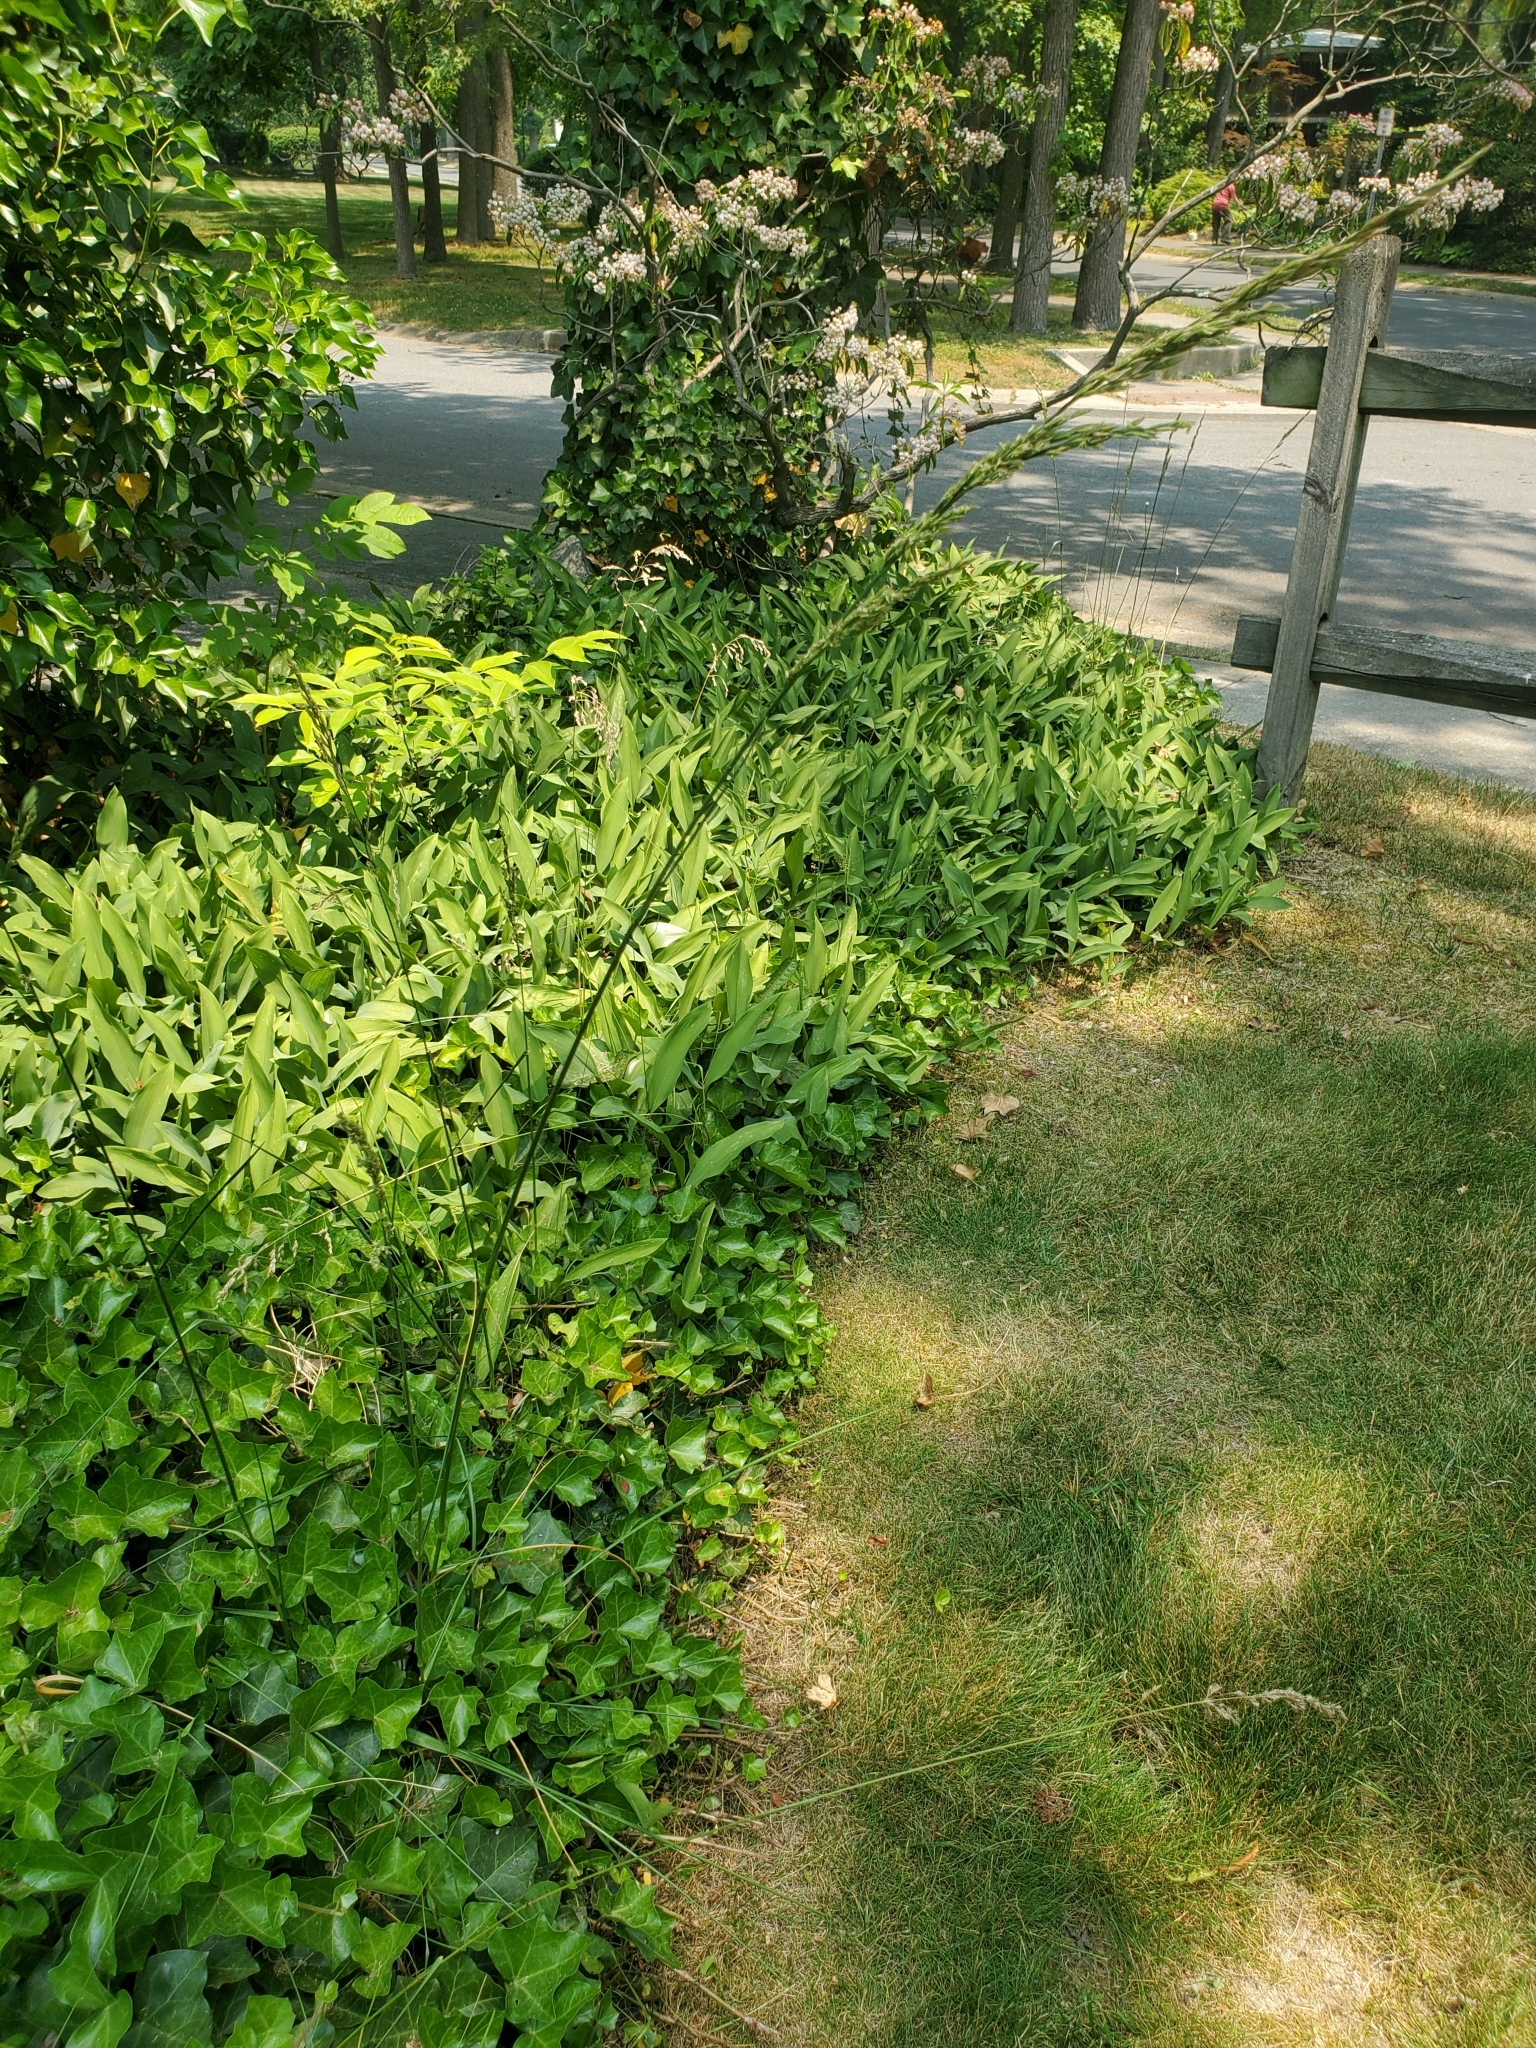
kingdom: Plantae
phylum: Tracheophyta
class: Liliopsida
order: Poales
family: Poaceae
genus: Lolium
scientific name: Lolium arundinaceum
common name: Reed fescue
